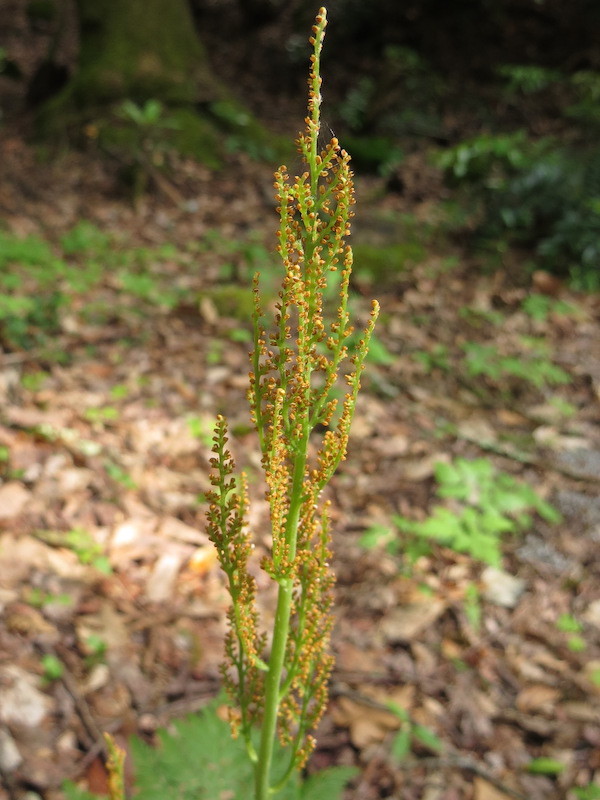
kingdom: Plantae
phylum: Tracheophyta
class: Polypodiopsida
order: Ophioglossales
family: Ophioglossaceae
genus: Botrypus
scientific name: Botrypus virginianus
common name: Common grapefern
